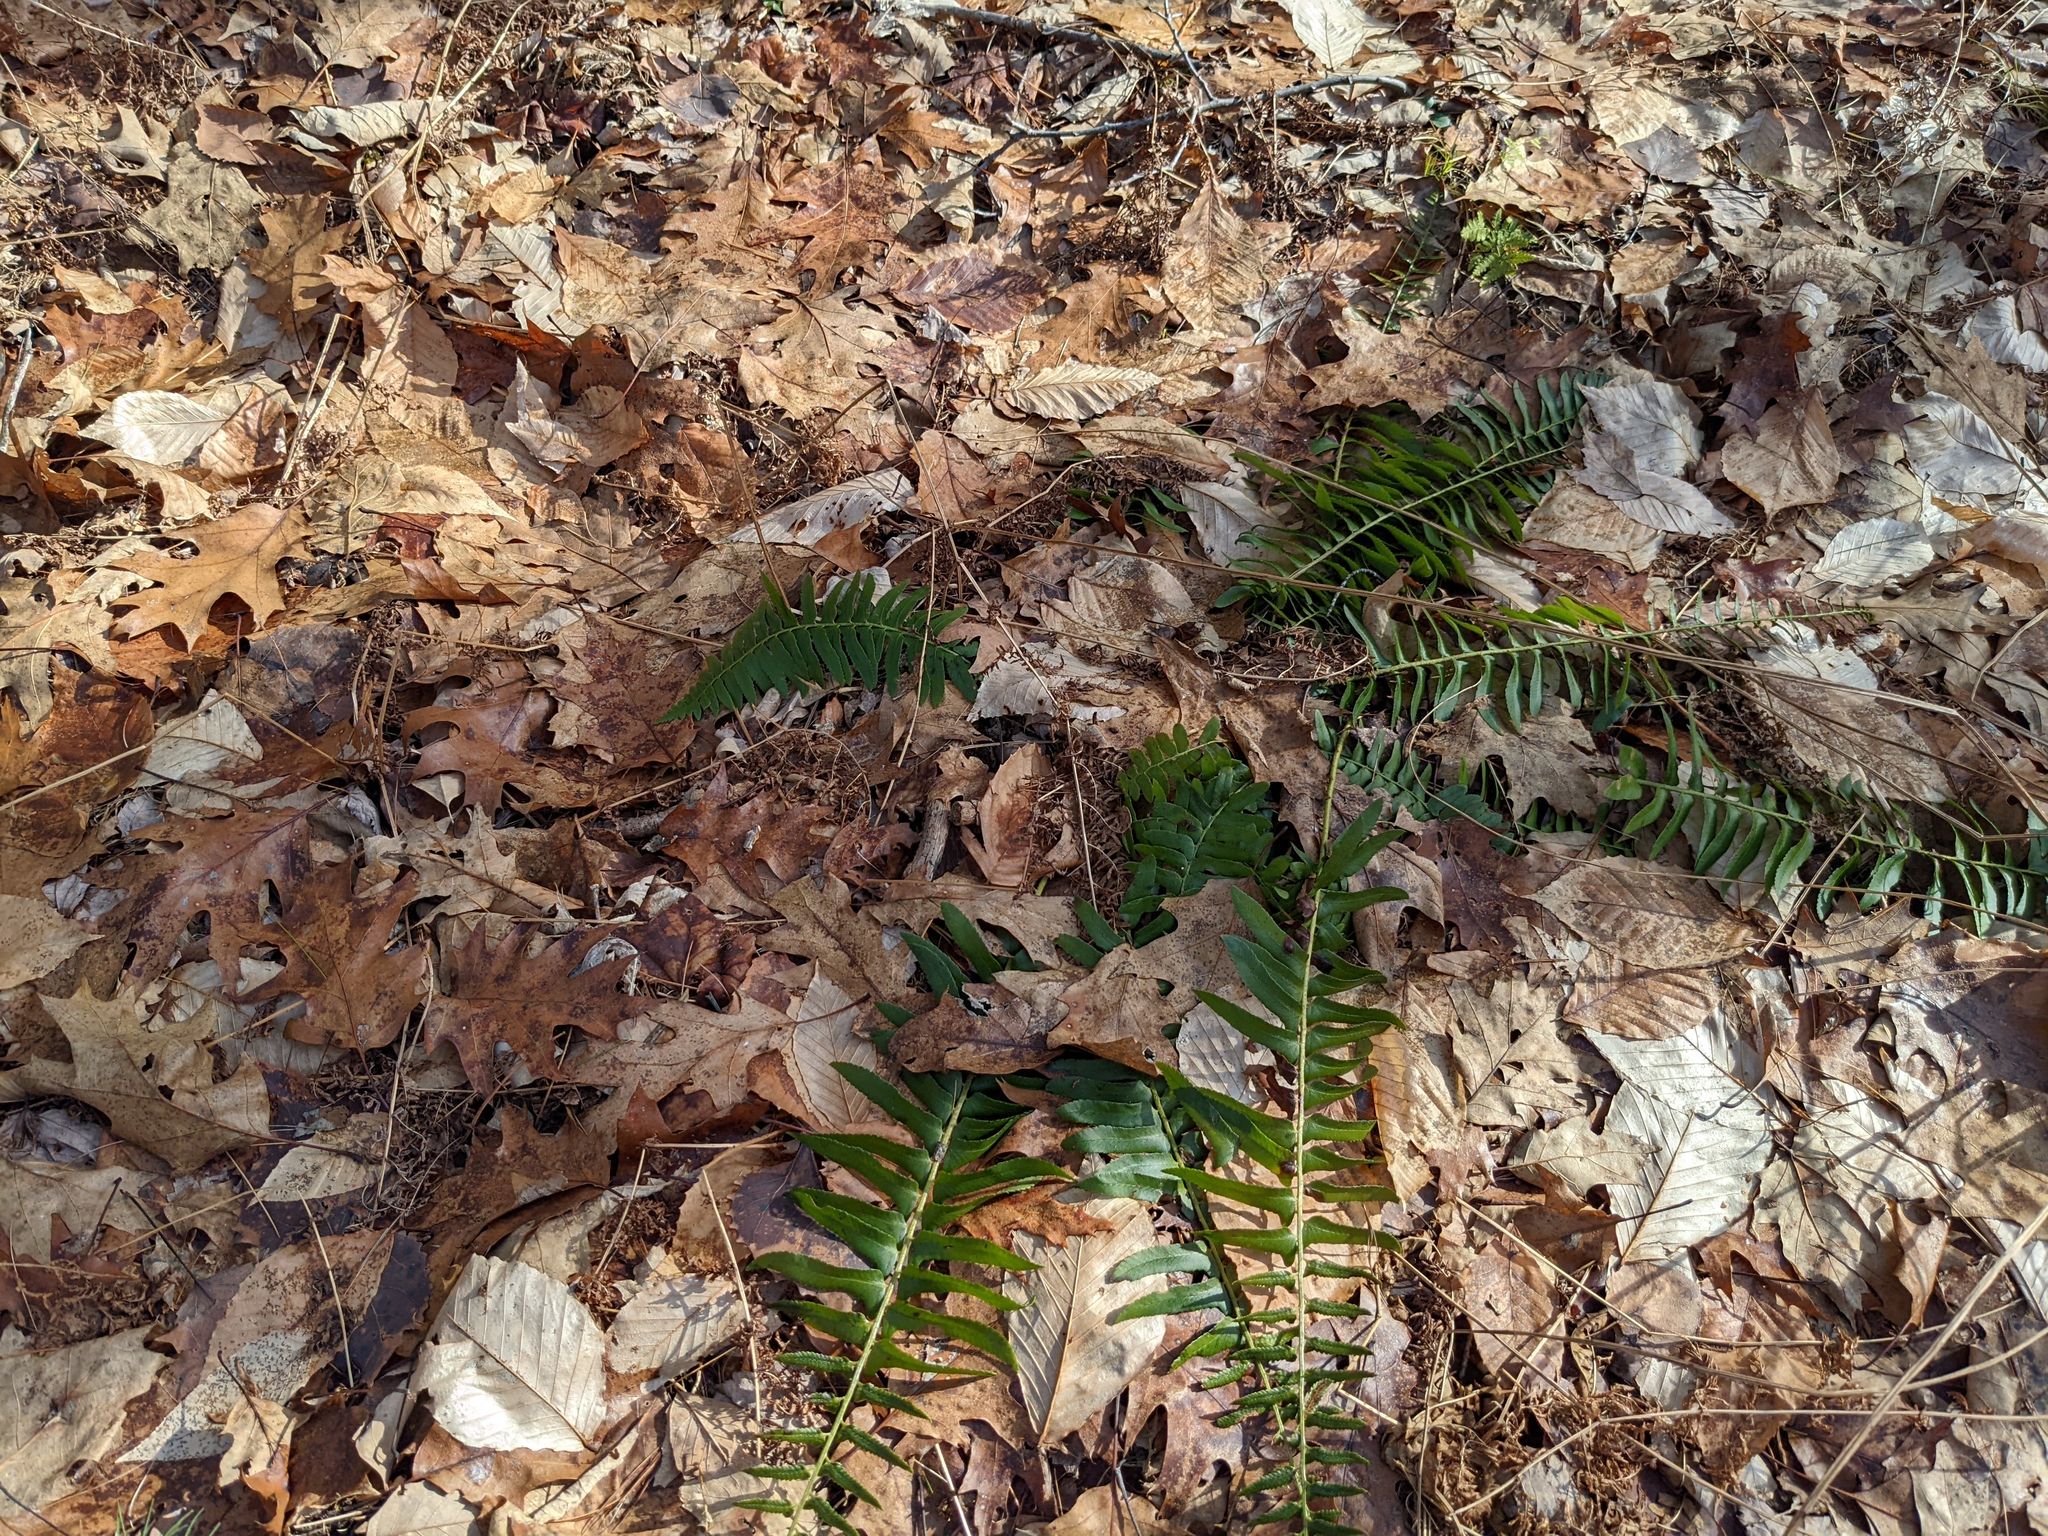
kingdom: Plantae
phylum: Tracheophyta
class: Polypodiopsida
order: Polypodiales
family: Dryopteridaceae
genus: Polystichum
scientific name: Polystichum acrostichoides
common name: Christmas fern
